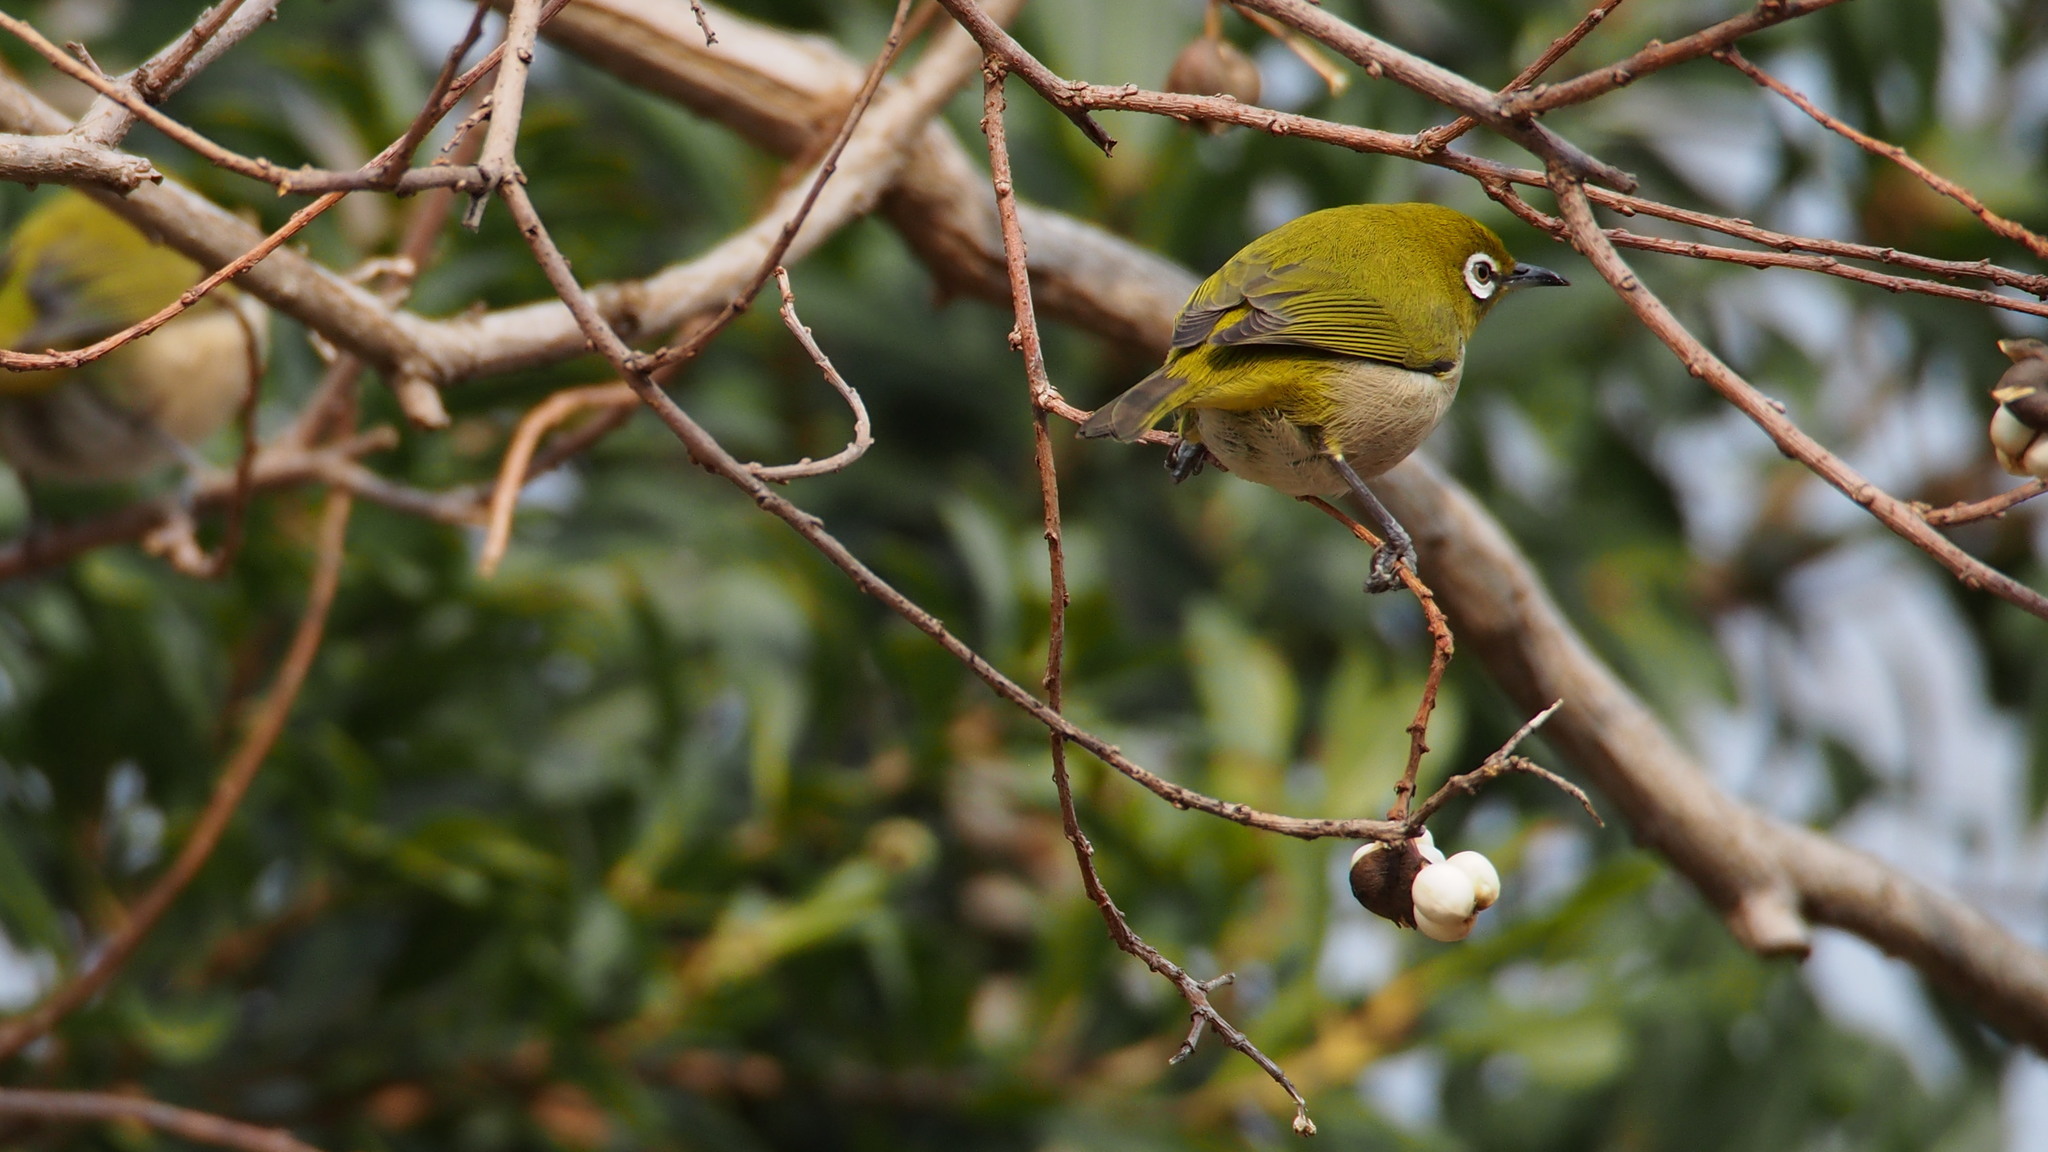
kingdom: Animalia
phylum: Chordata
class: Aves
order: Passeriformes
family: Zosteropidae
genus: Zosterops
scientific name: Zosterops japonicus
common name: Japanese white-eye
